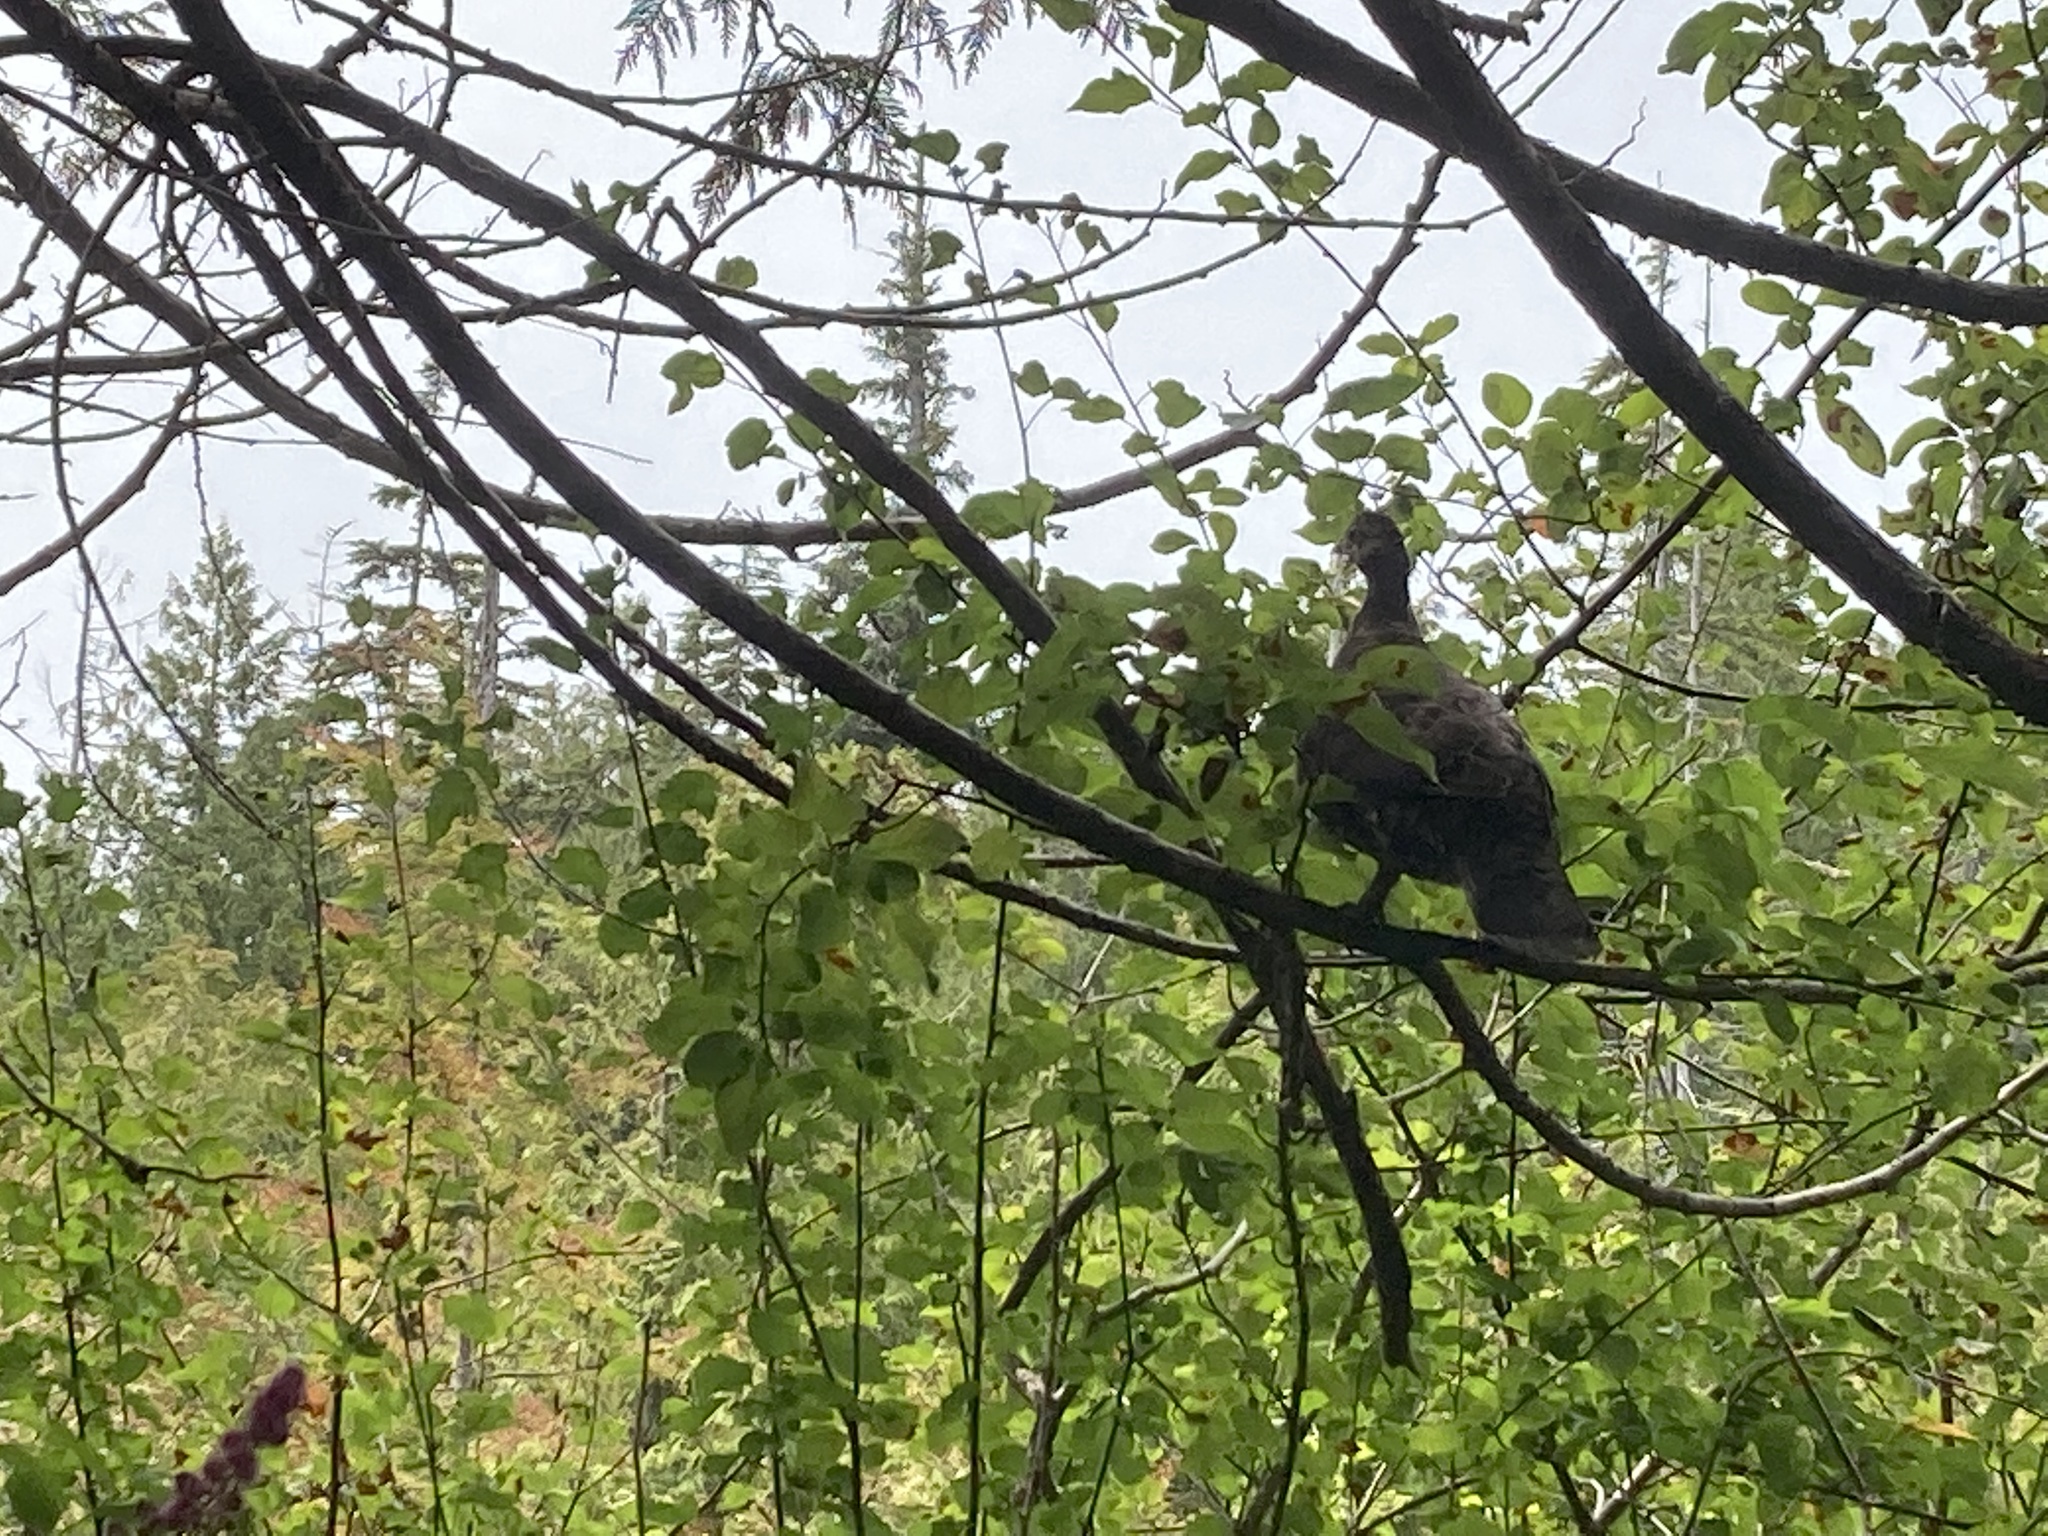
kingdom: Animalia
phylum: Chordata
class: Aves
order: Galliformes
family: Phasianidae
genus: Dendragapus
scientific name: Dendragapus fuliginosus
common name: Sooty grouse
